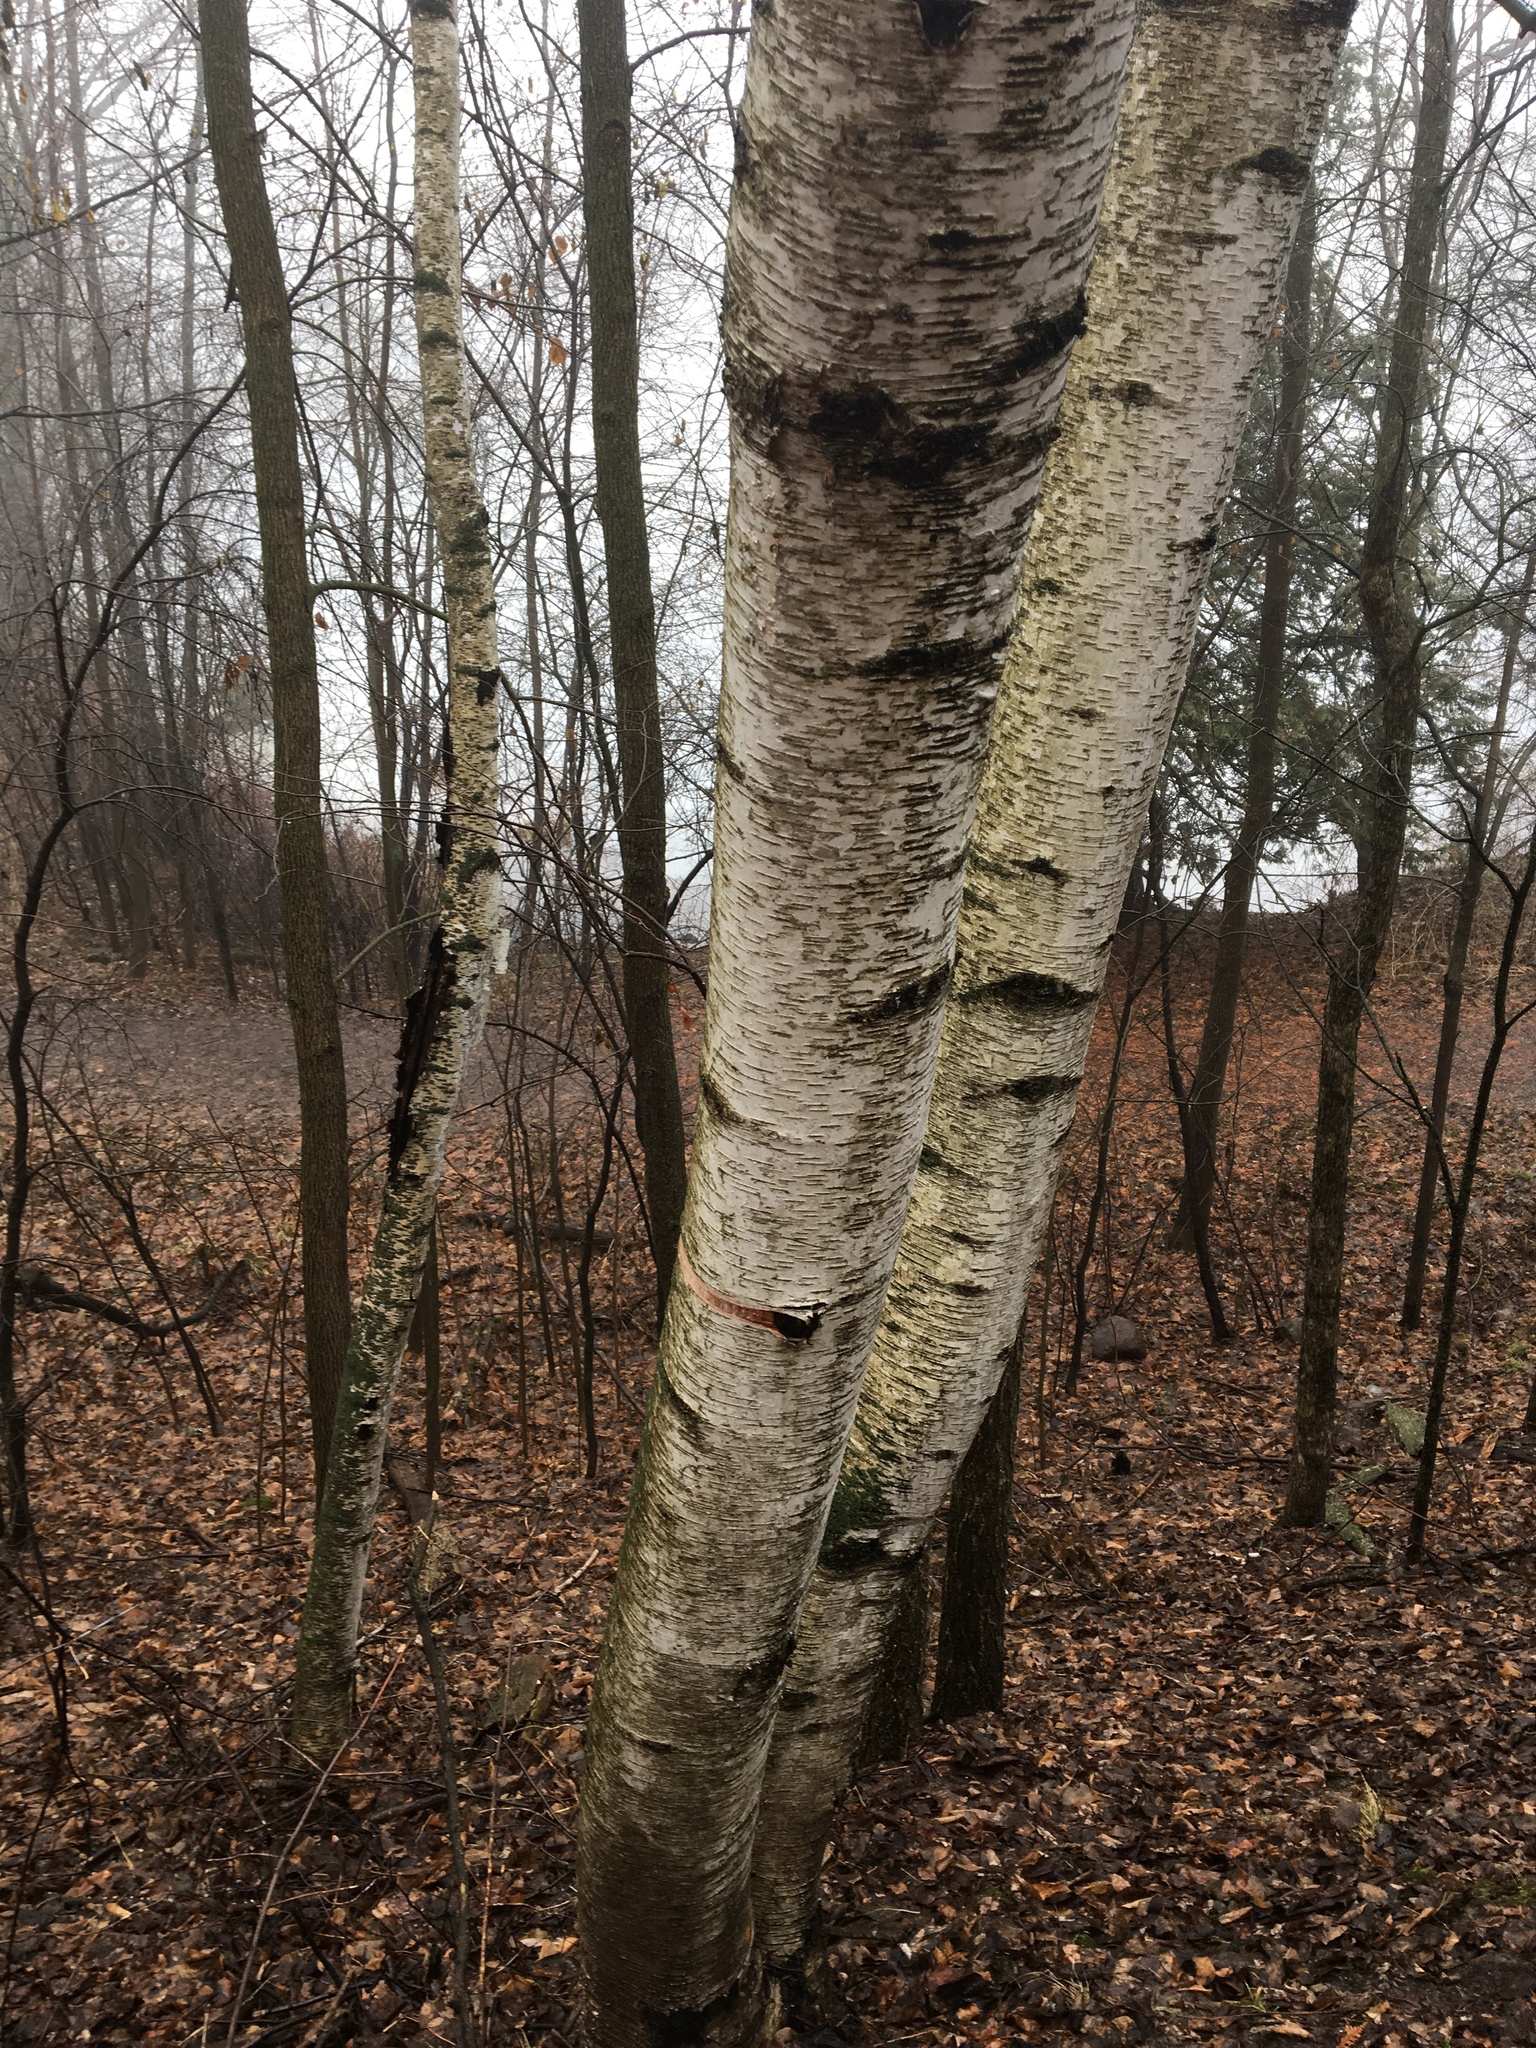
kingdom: Plantae
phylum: Tracheophyta
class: Magnoliopsida
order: Fagales
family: Betulaceae
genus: Betula
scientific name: Betula papyrifera
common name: Paper birch
